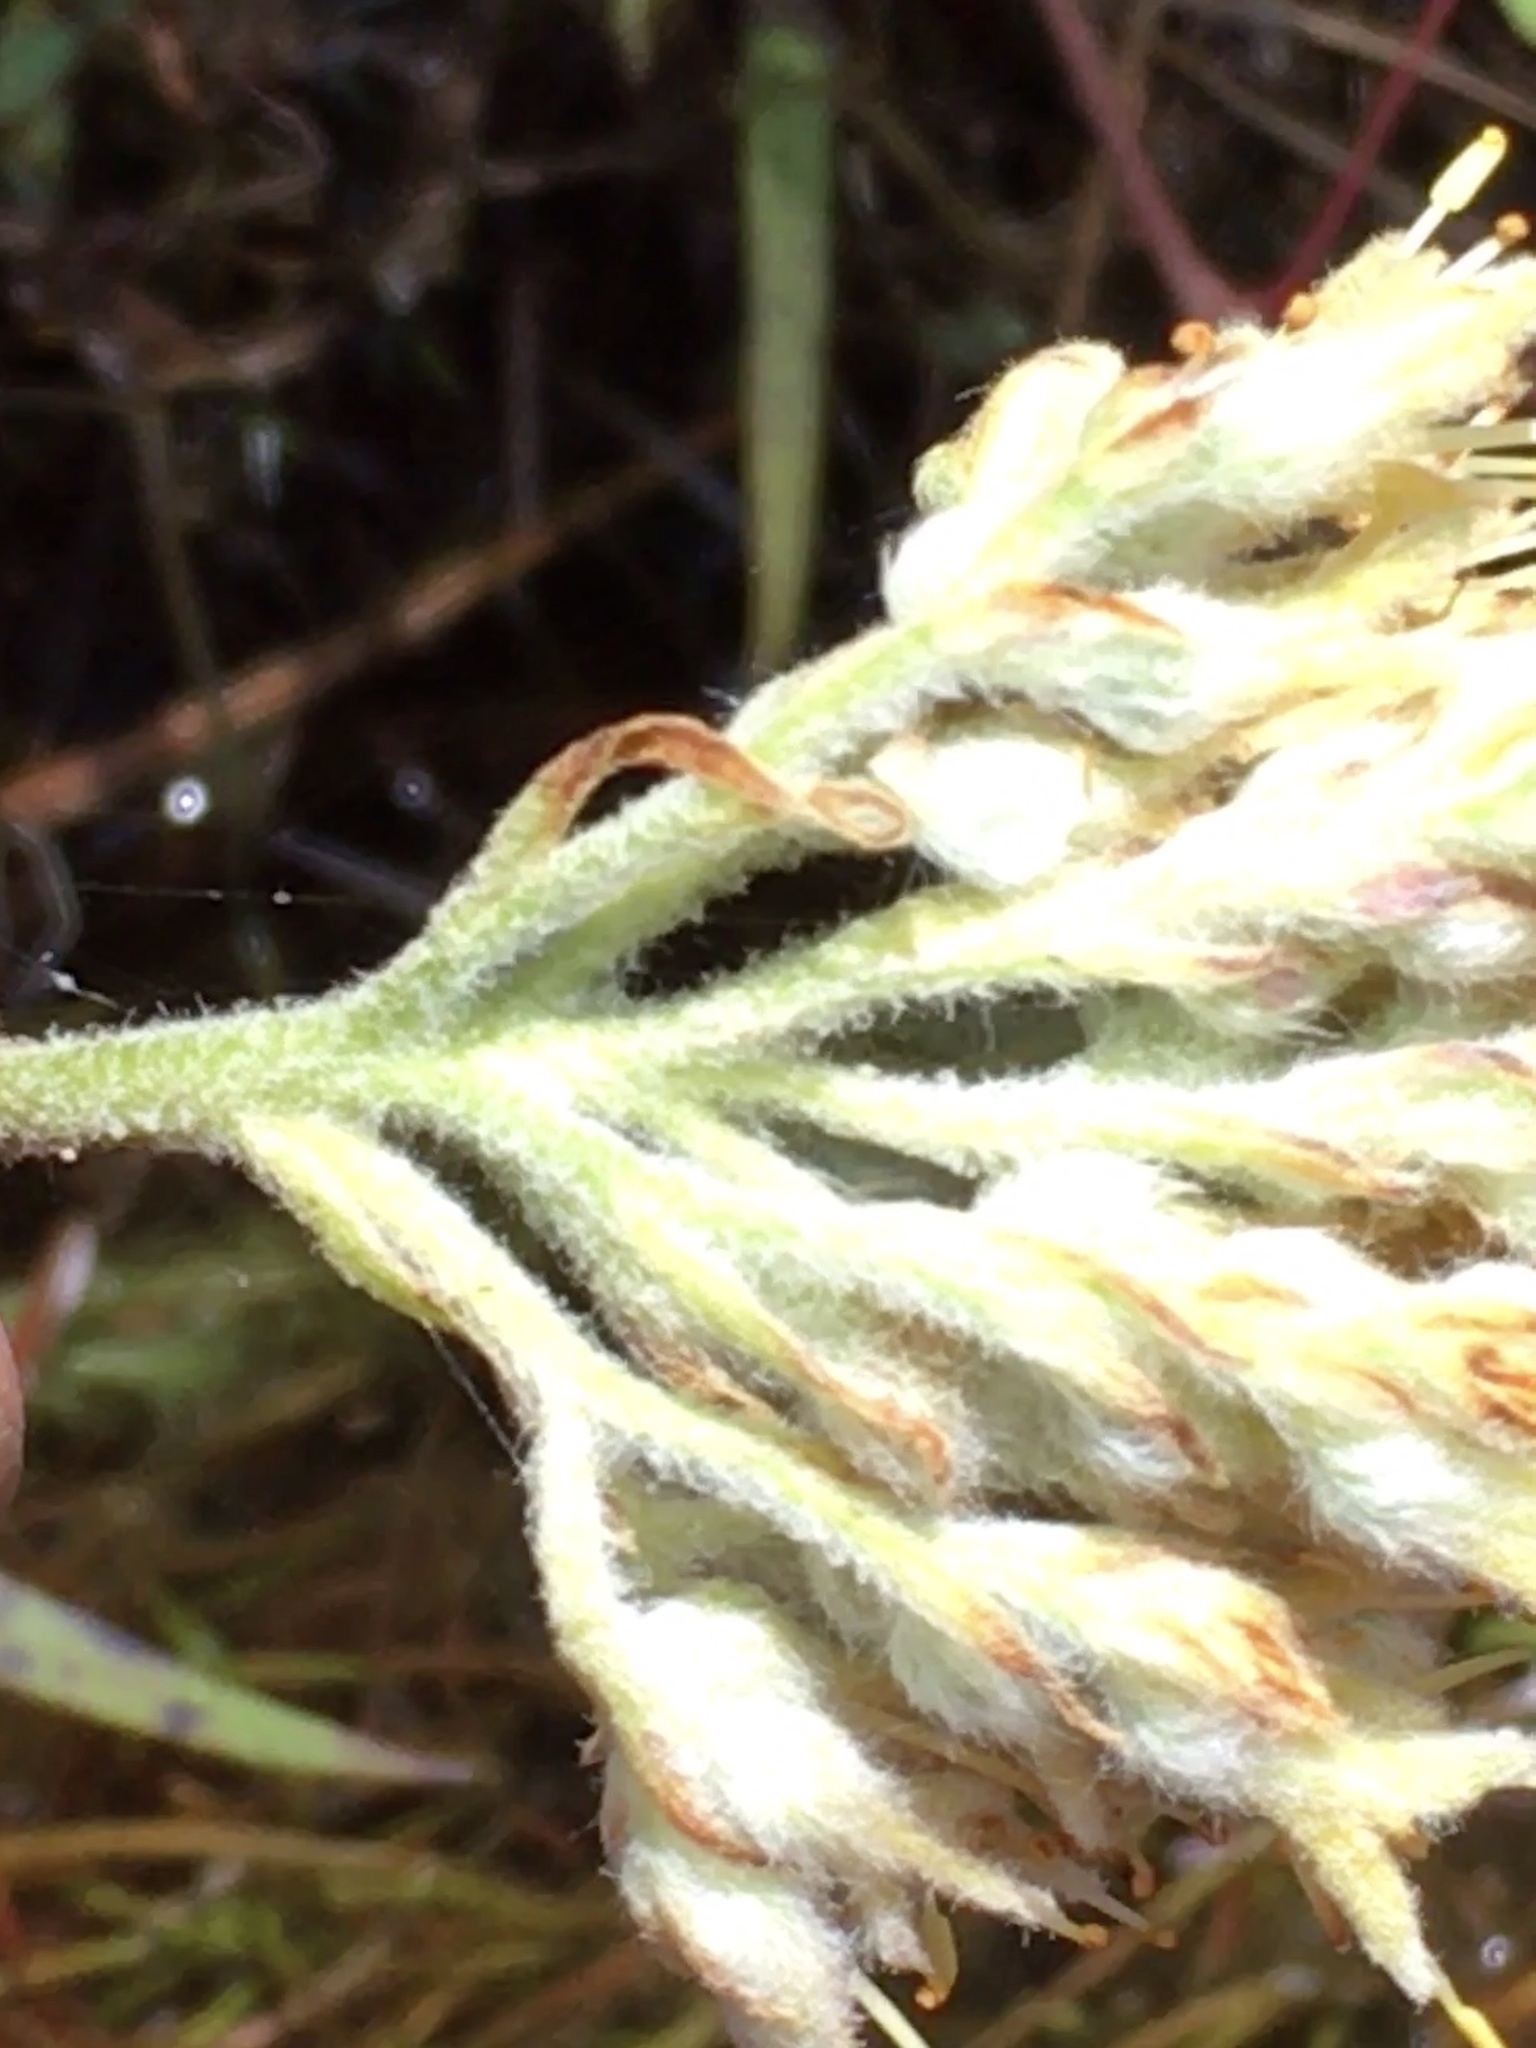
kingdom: Plantae
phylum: Tracheophyta
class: Liliopsida
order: Commelinales
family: Haemodoraceae
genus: Lachnanthes
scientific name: Lachnanthes caroliana
